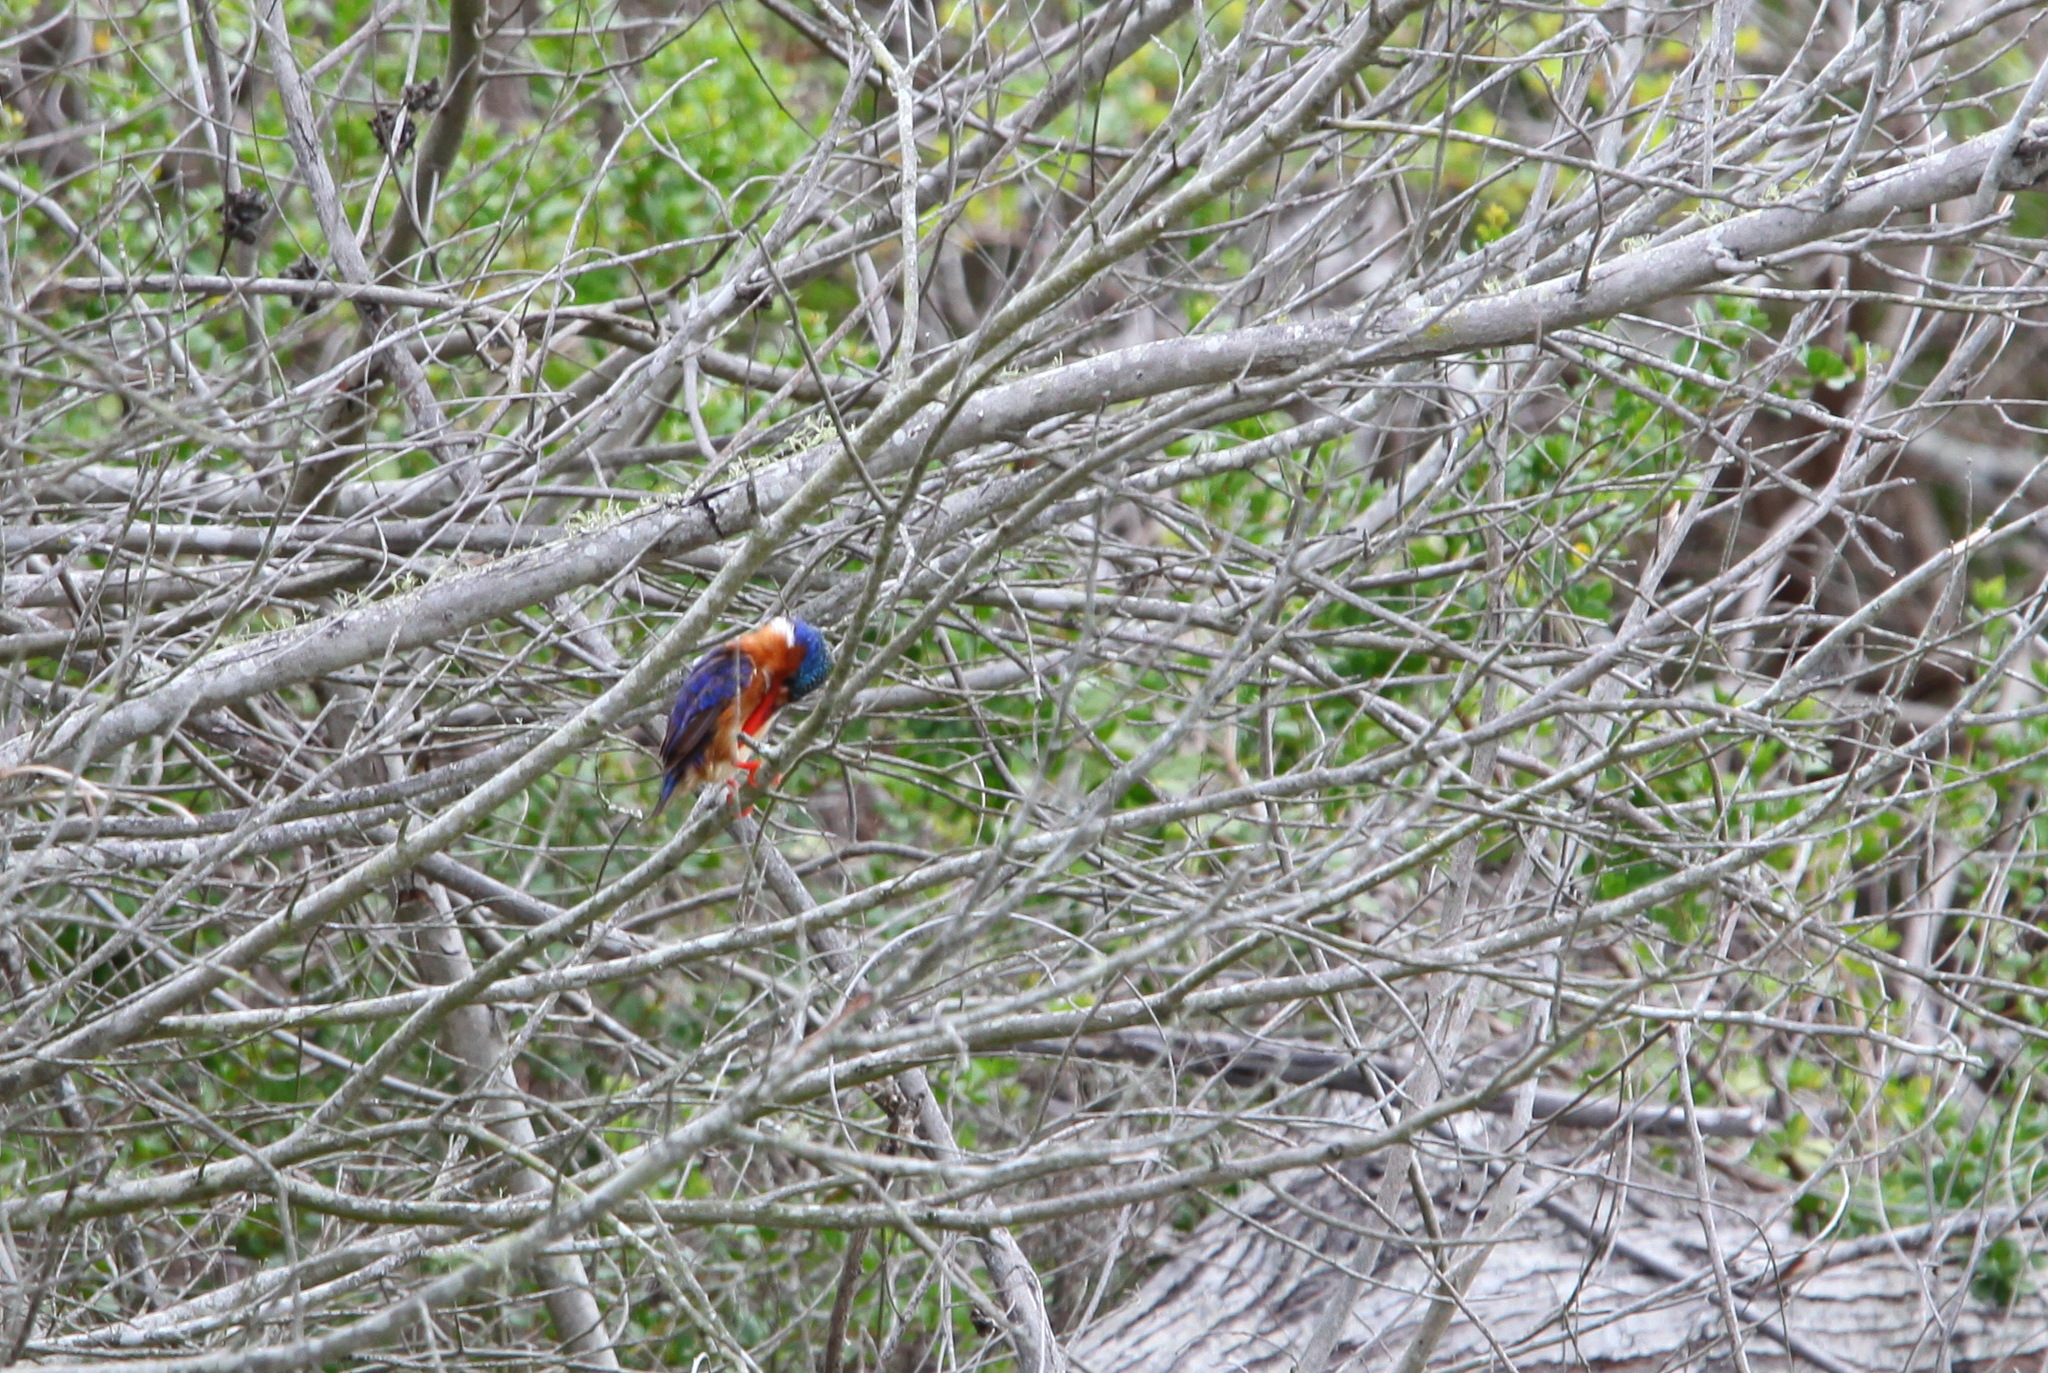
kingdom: Animalia
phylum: Chordata
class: Aves
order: Coraciiformes
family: Alcedinidae
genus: Corythornis
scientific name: Corythornis cristatus
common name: Malachite kingfisher
